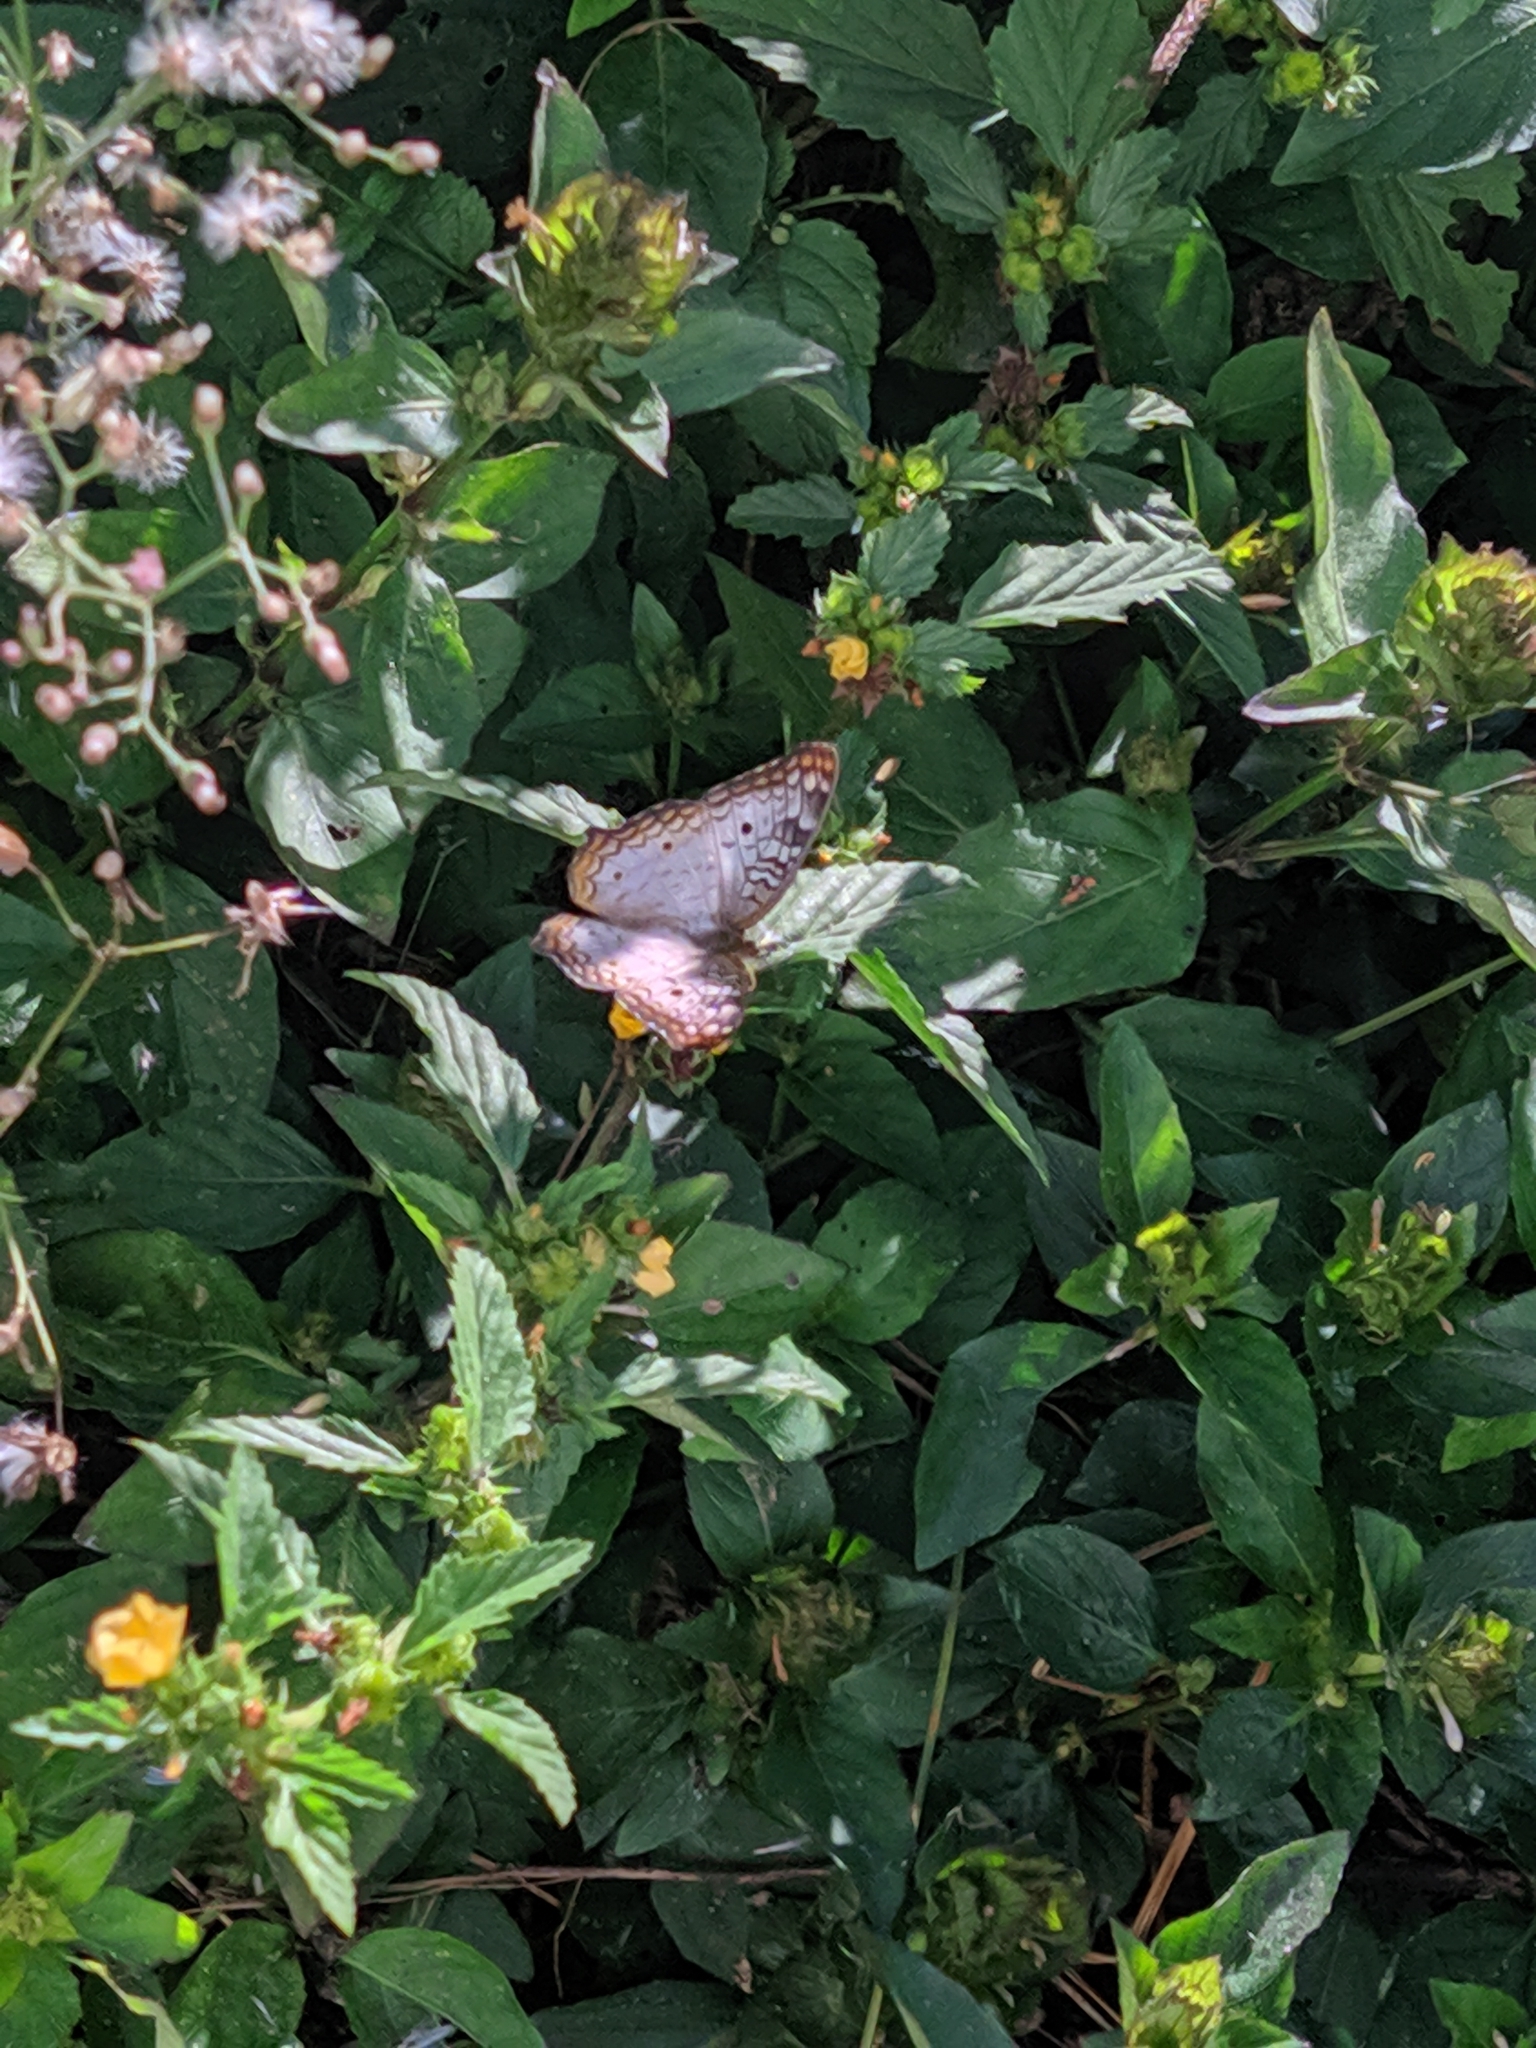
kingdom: Animalia
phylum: Arthropoda
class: Insecta
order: Lepidoptera
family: Nymphalidae
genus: Anartia
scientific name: Anartia jatrophae
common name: White peacock
